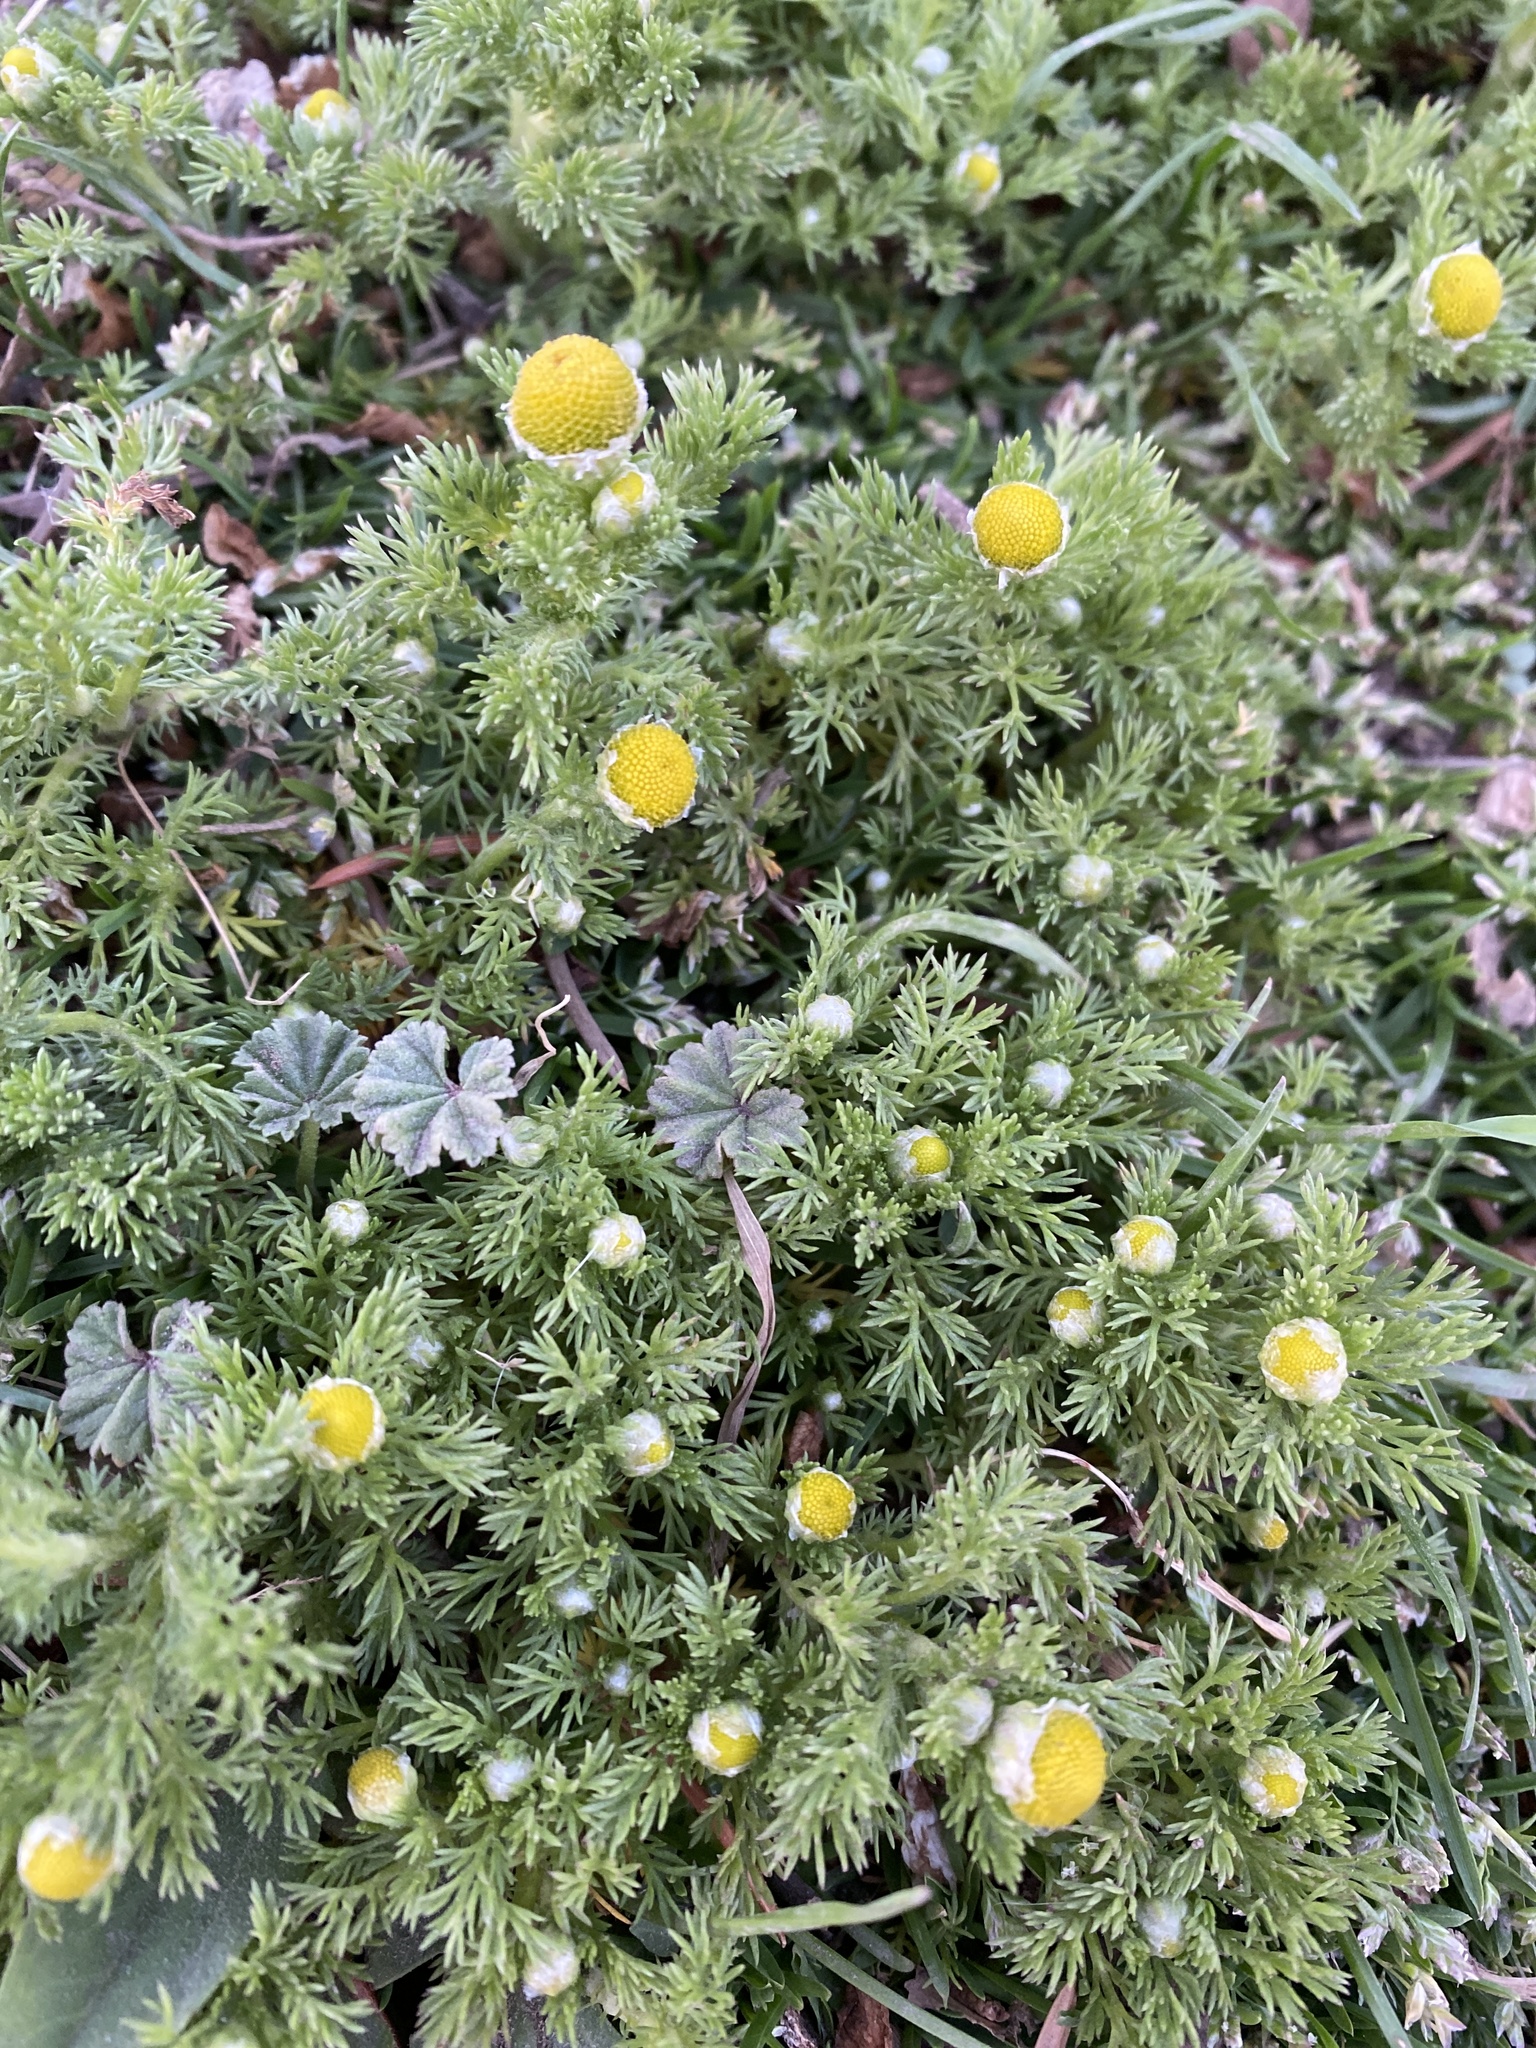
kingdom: Plantae
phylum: Tracheophyta
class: Magnoliopsida
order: Asterales
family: Asteraceae
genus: Matricaria
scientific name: Matricaria discoidea
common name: Disc mayweed
